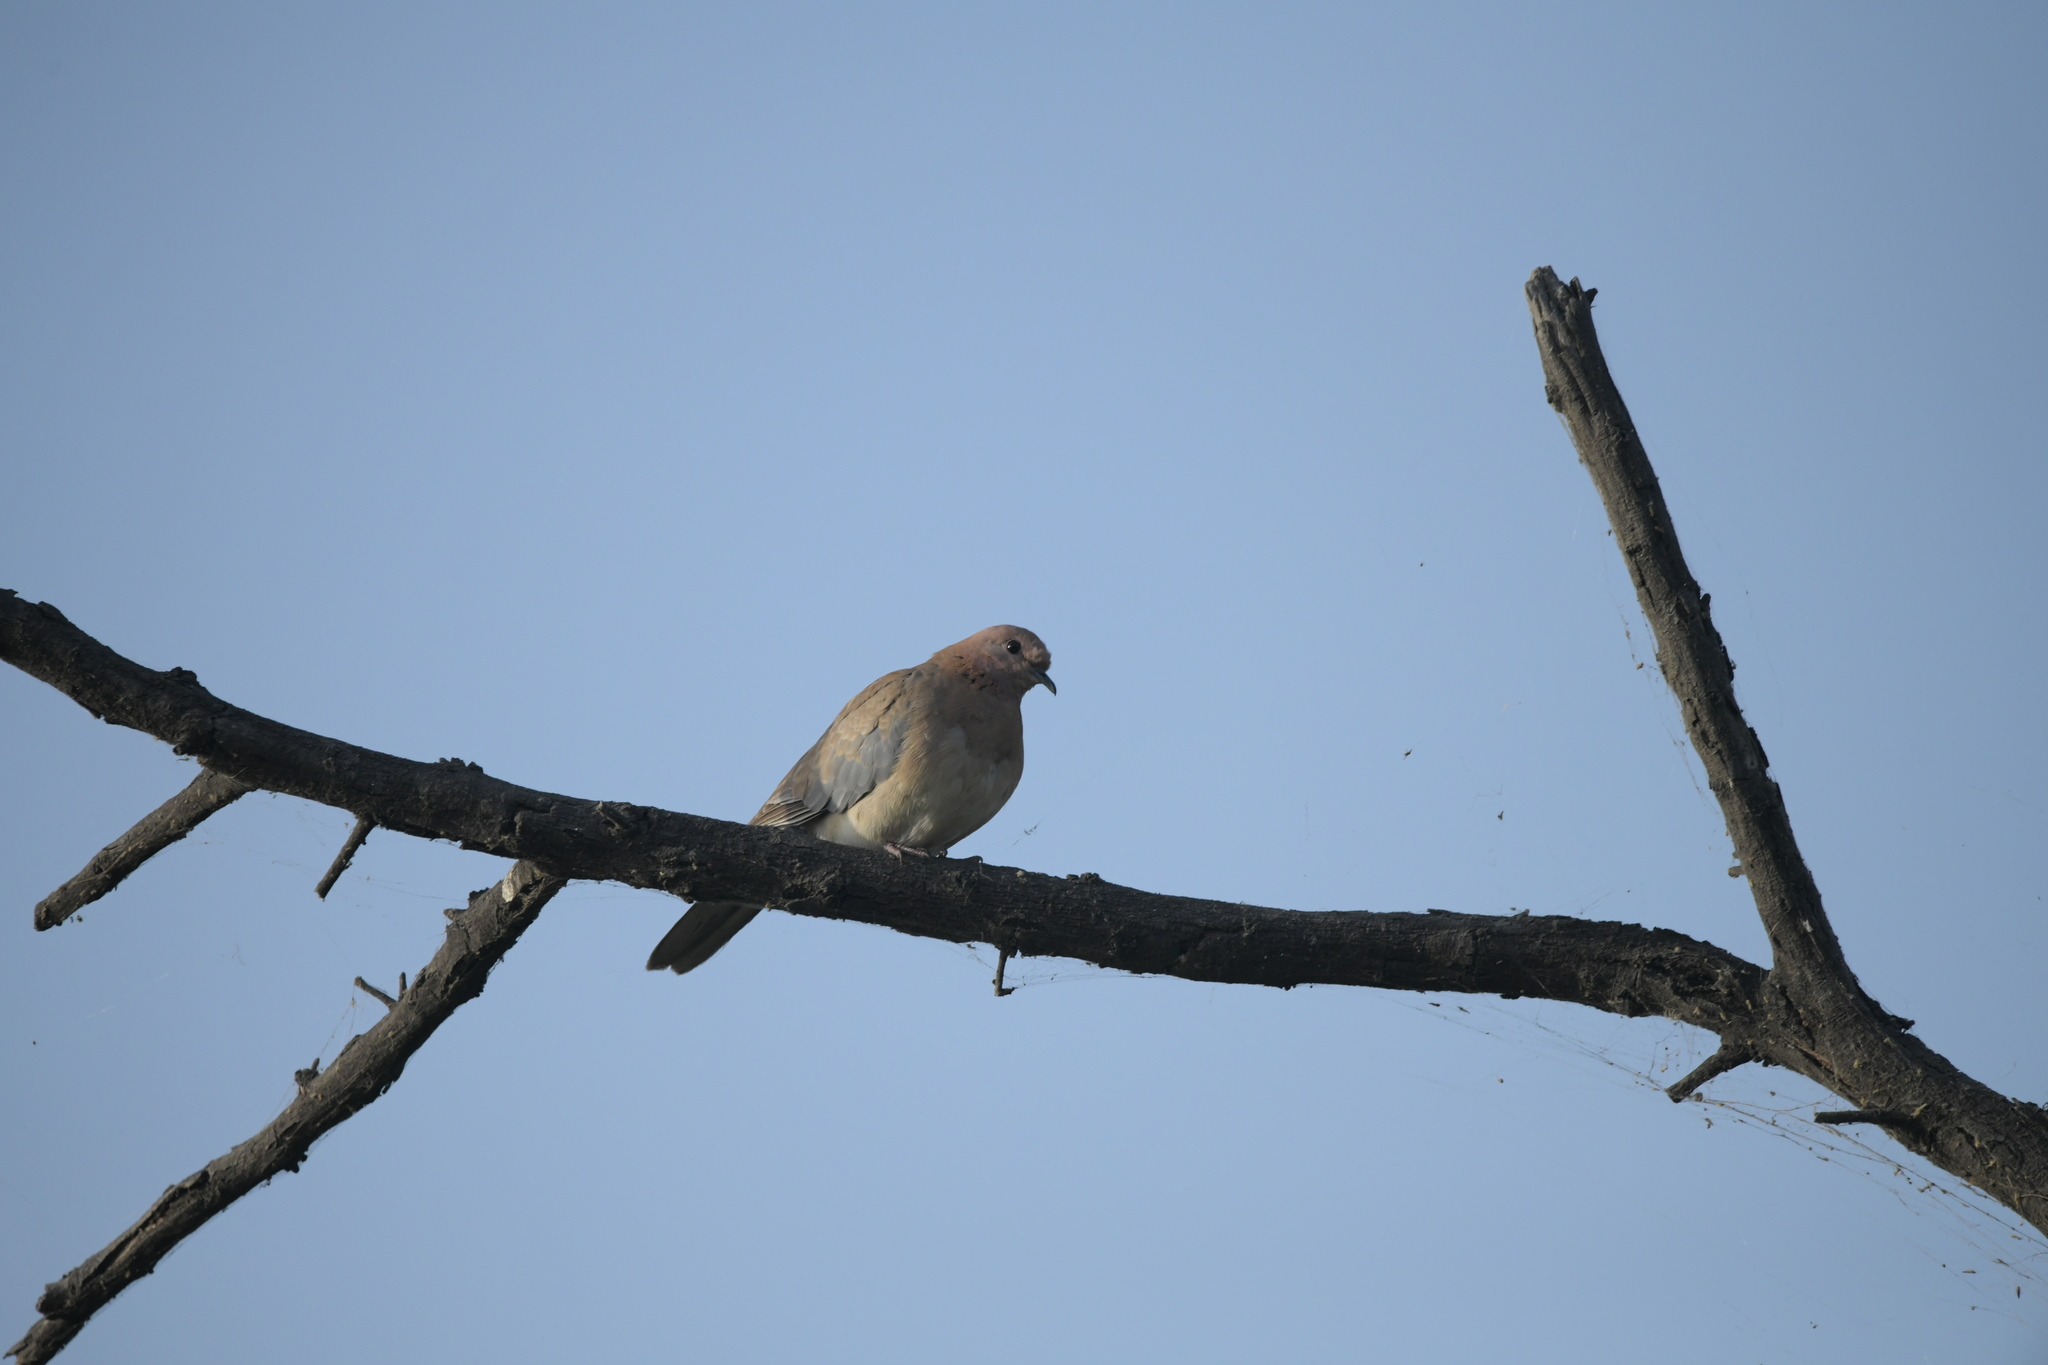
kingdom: Animalia
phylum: Chordata
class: Aves
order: Columbiformes
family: Columbidae
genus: Spilopelia
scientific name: Spilopelia senegalensis
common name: Laughing dove
